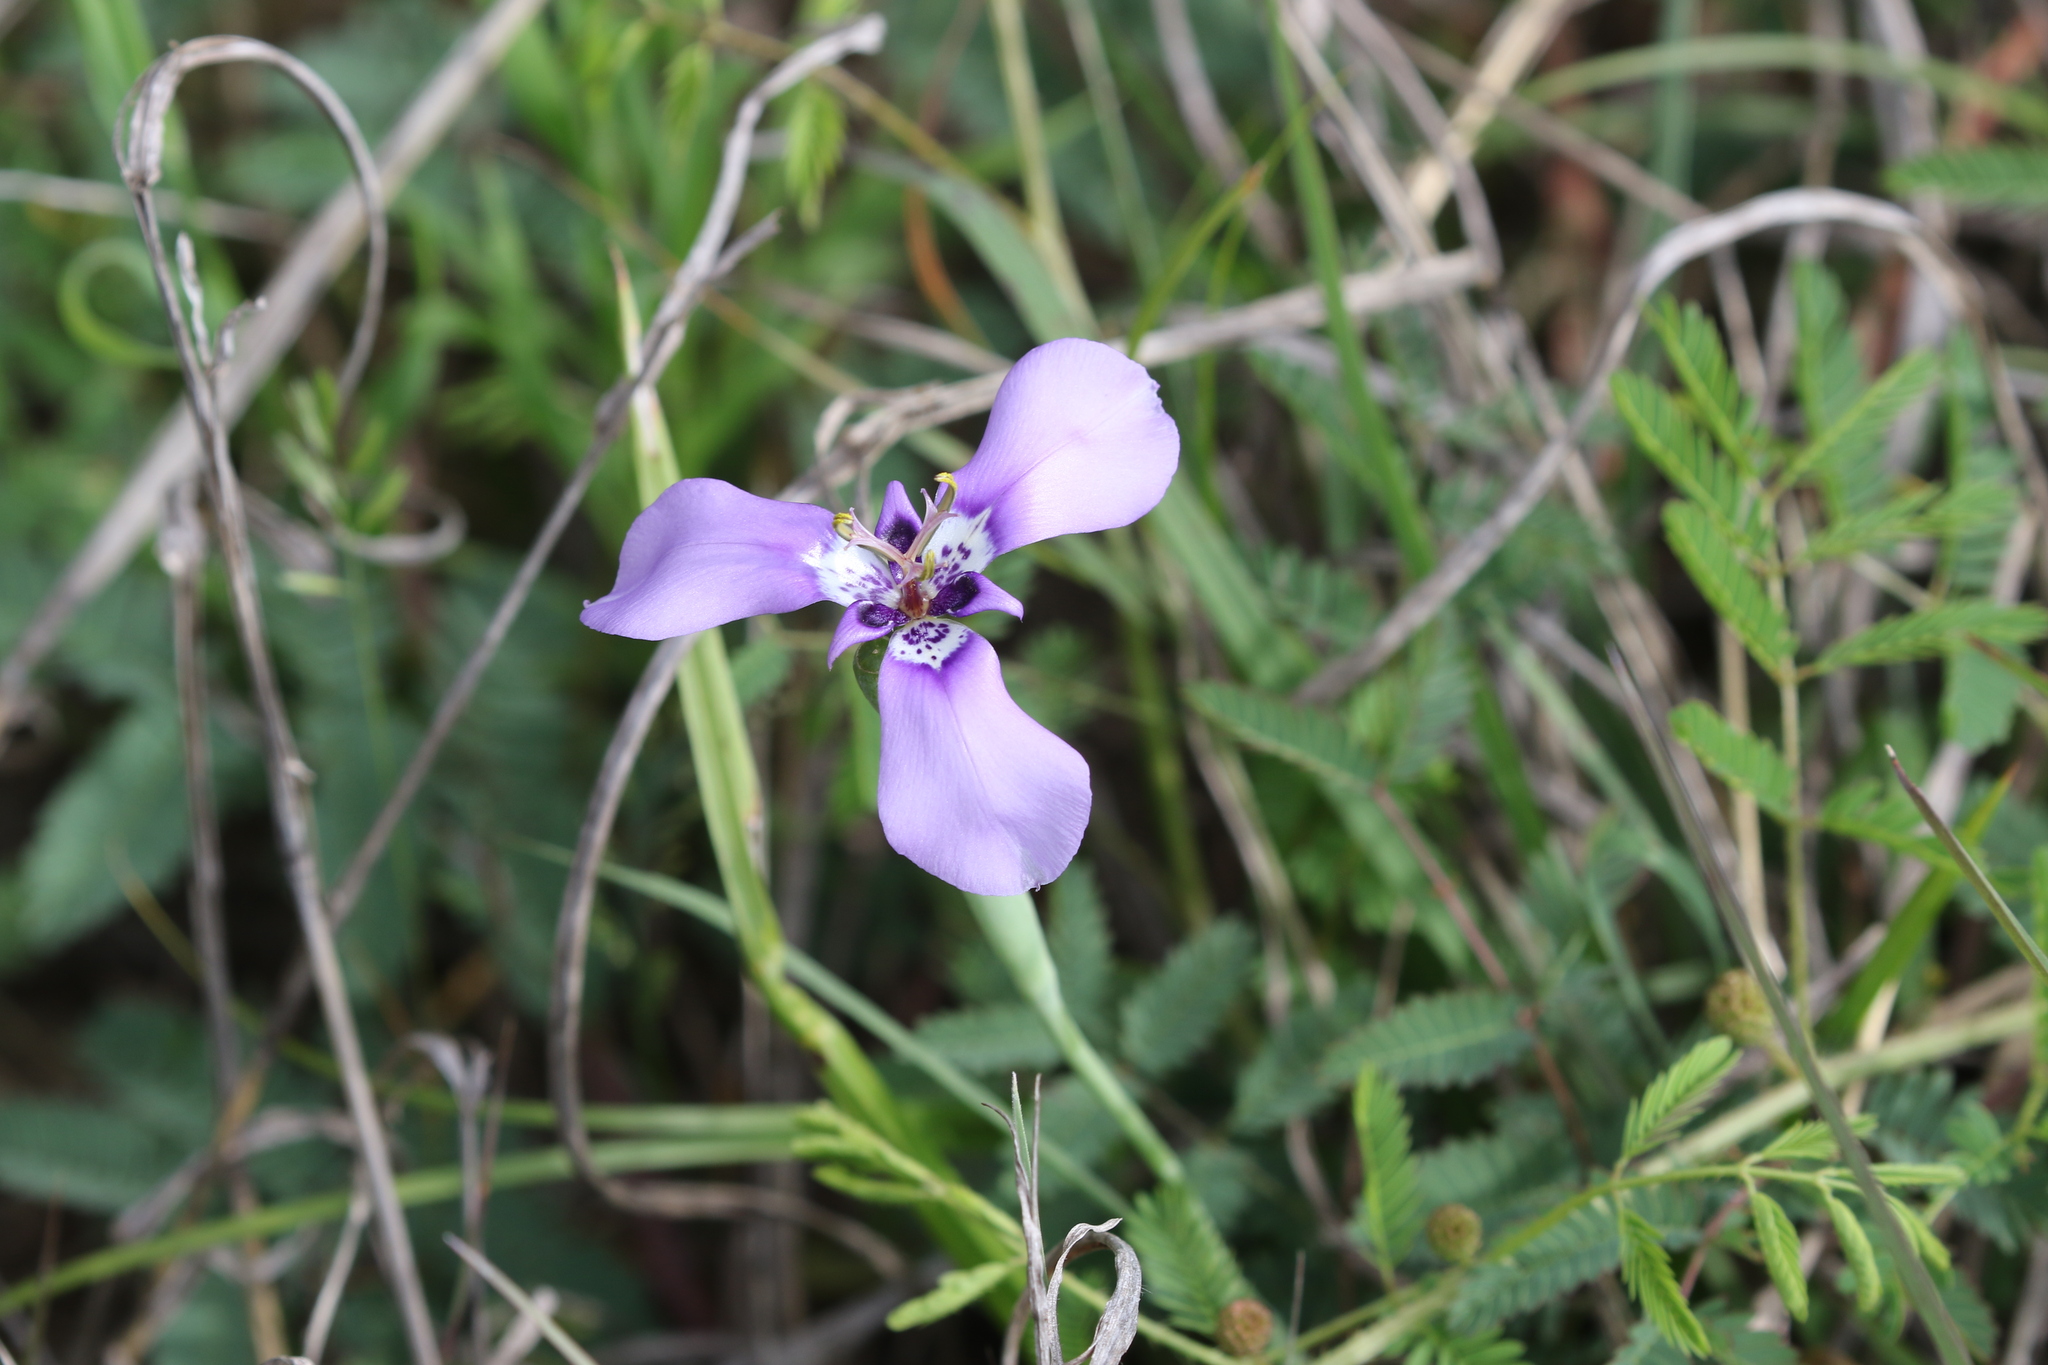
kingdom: Plantae
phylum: Tracheophyta
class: Liliopsida
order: Asparagales
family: Iridaceae
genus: Herbertia
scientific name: Herbertia lahue
